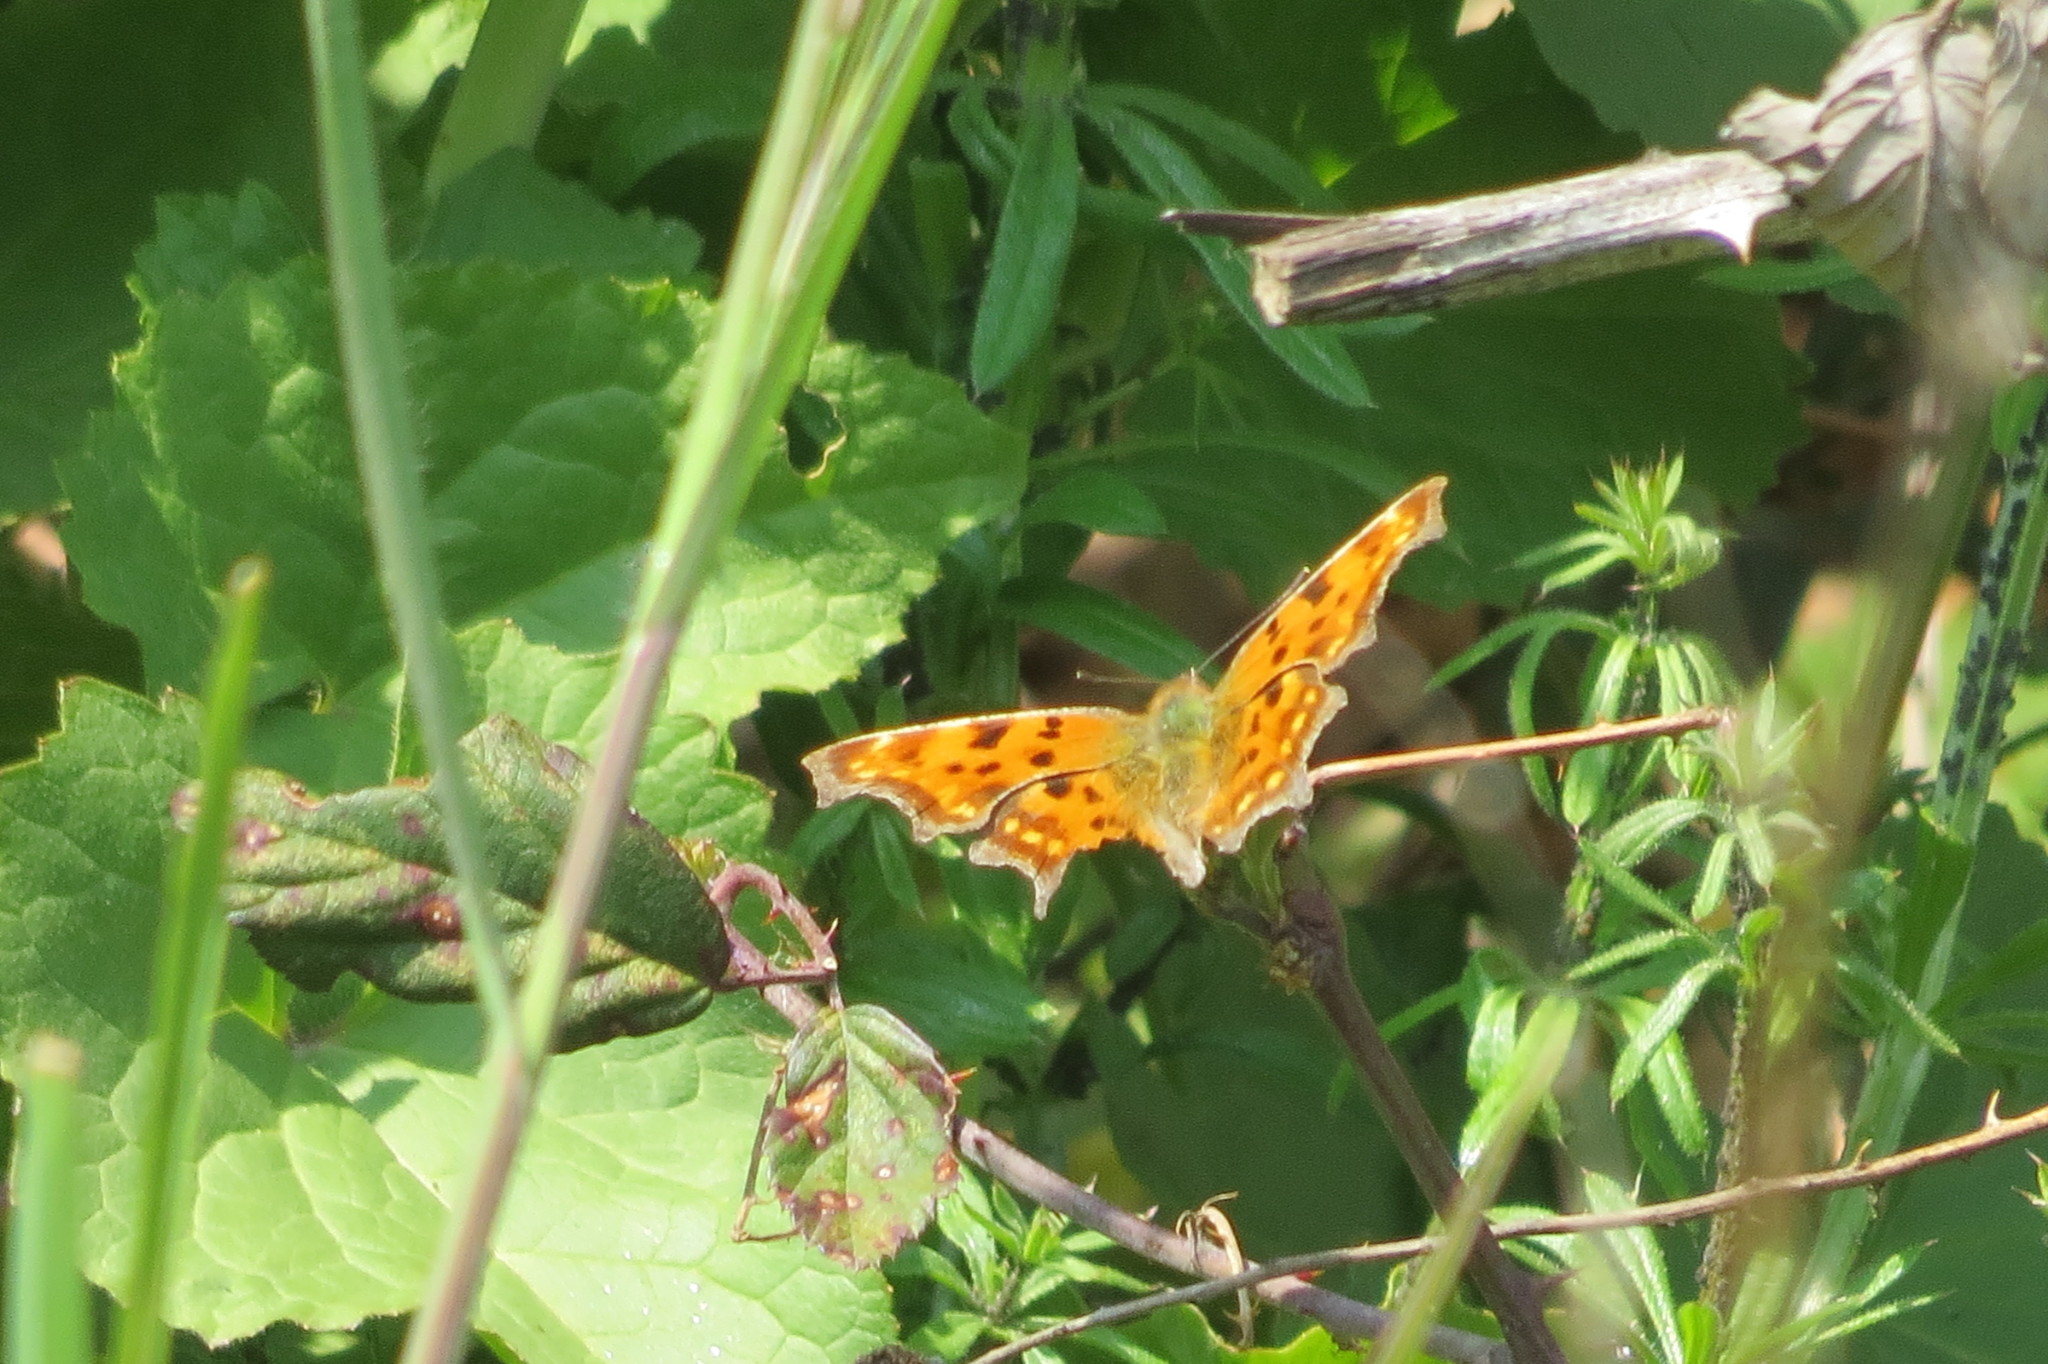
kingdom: Animalia
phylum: Arthropoda
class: Insecta
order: Lepidoptera
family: Nymphalidae
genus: Polygonia
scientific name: Polygonia c-album
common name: Comma
